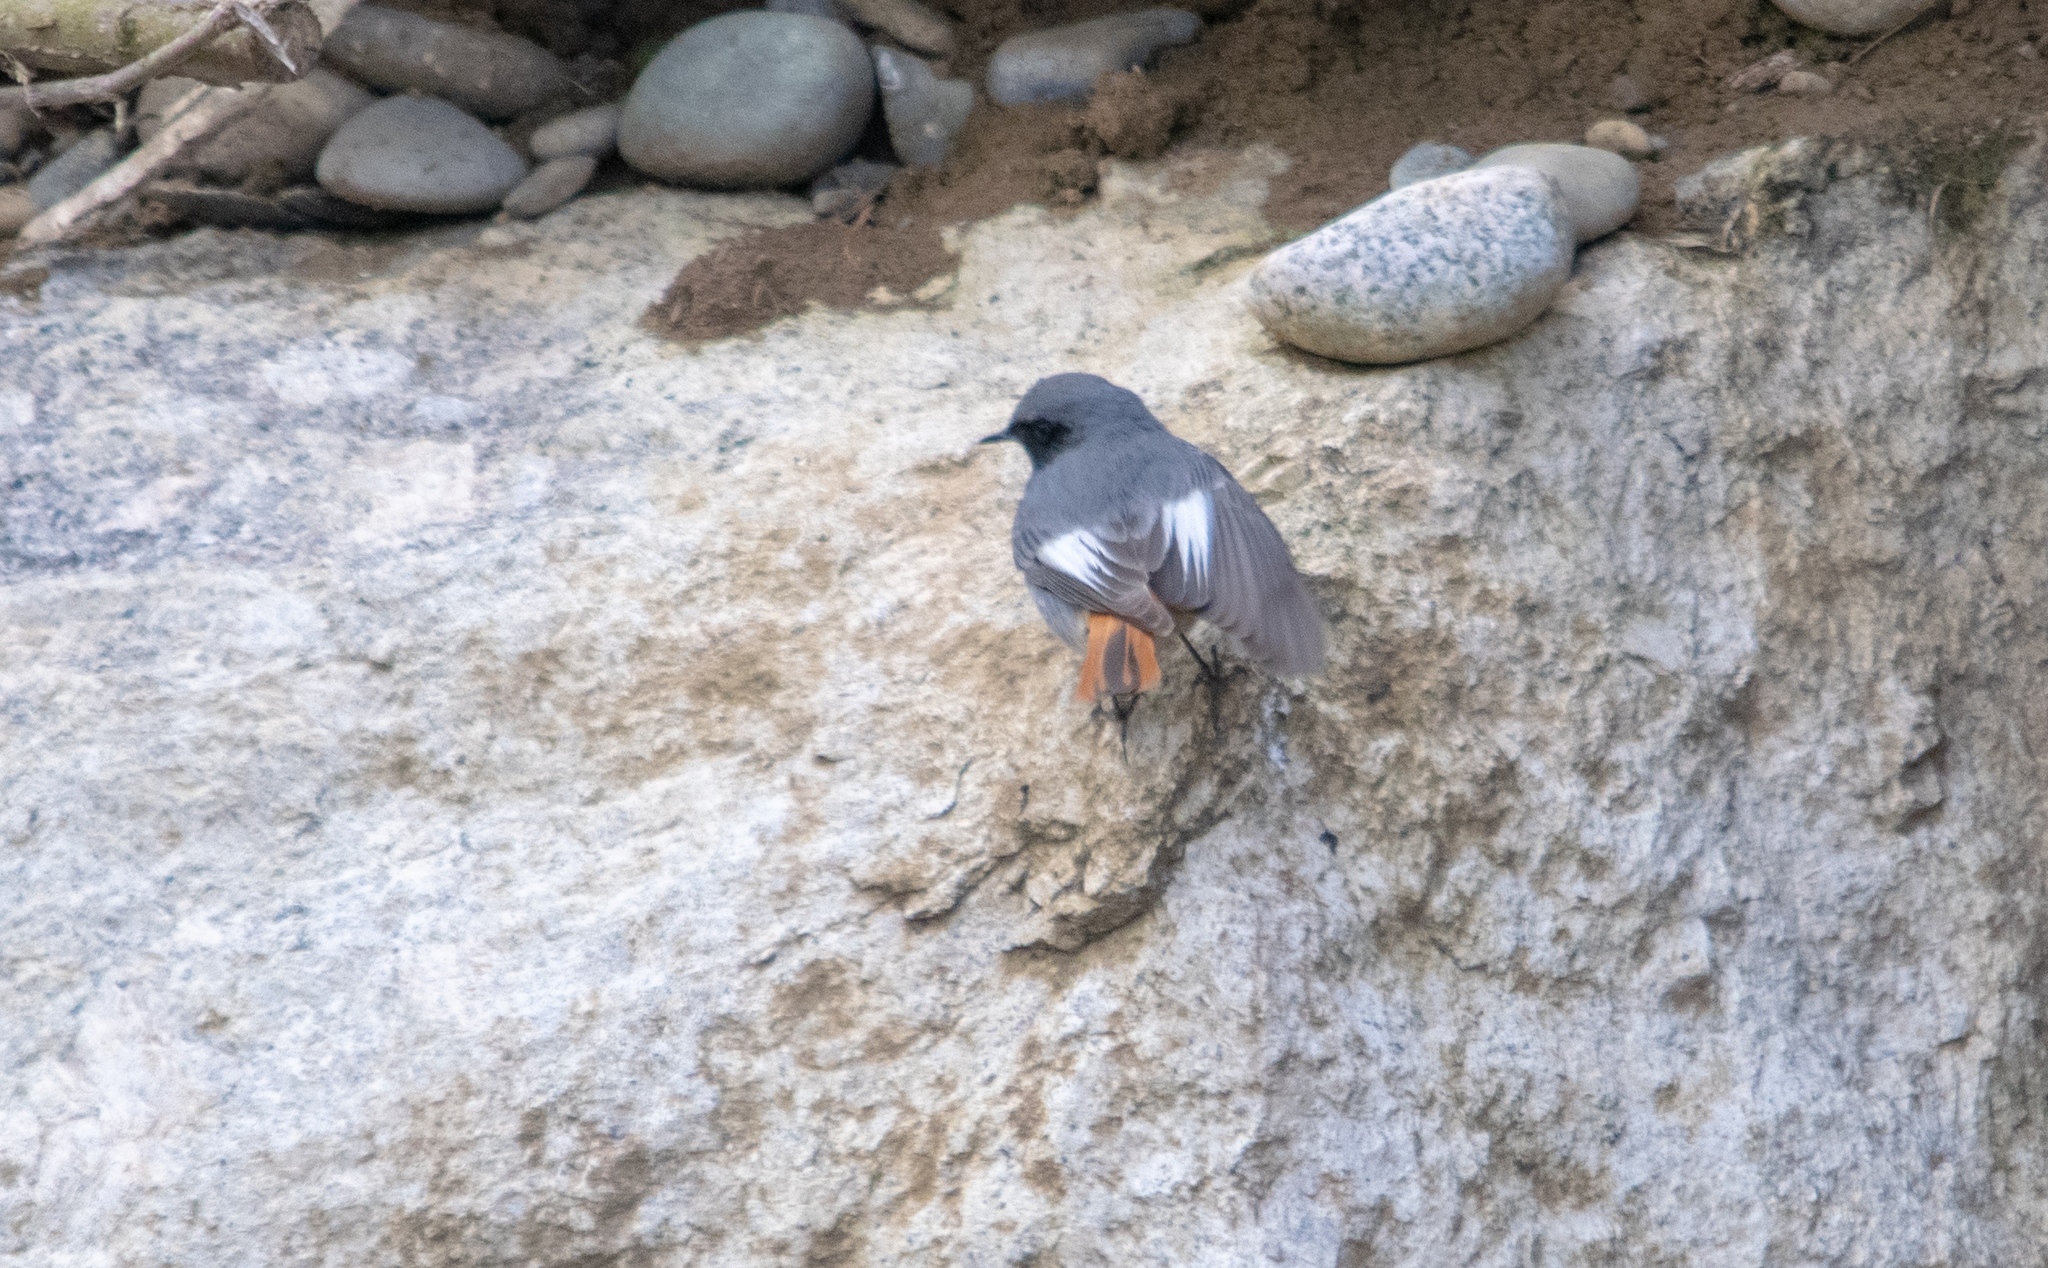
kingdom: Animalia
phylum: Chordata
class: Aves
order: Passeriformes
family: Muscicapidae
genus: Phoenicurus
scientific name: Phoenicurus ochruros
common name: Black redstart
